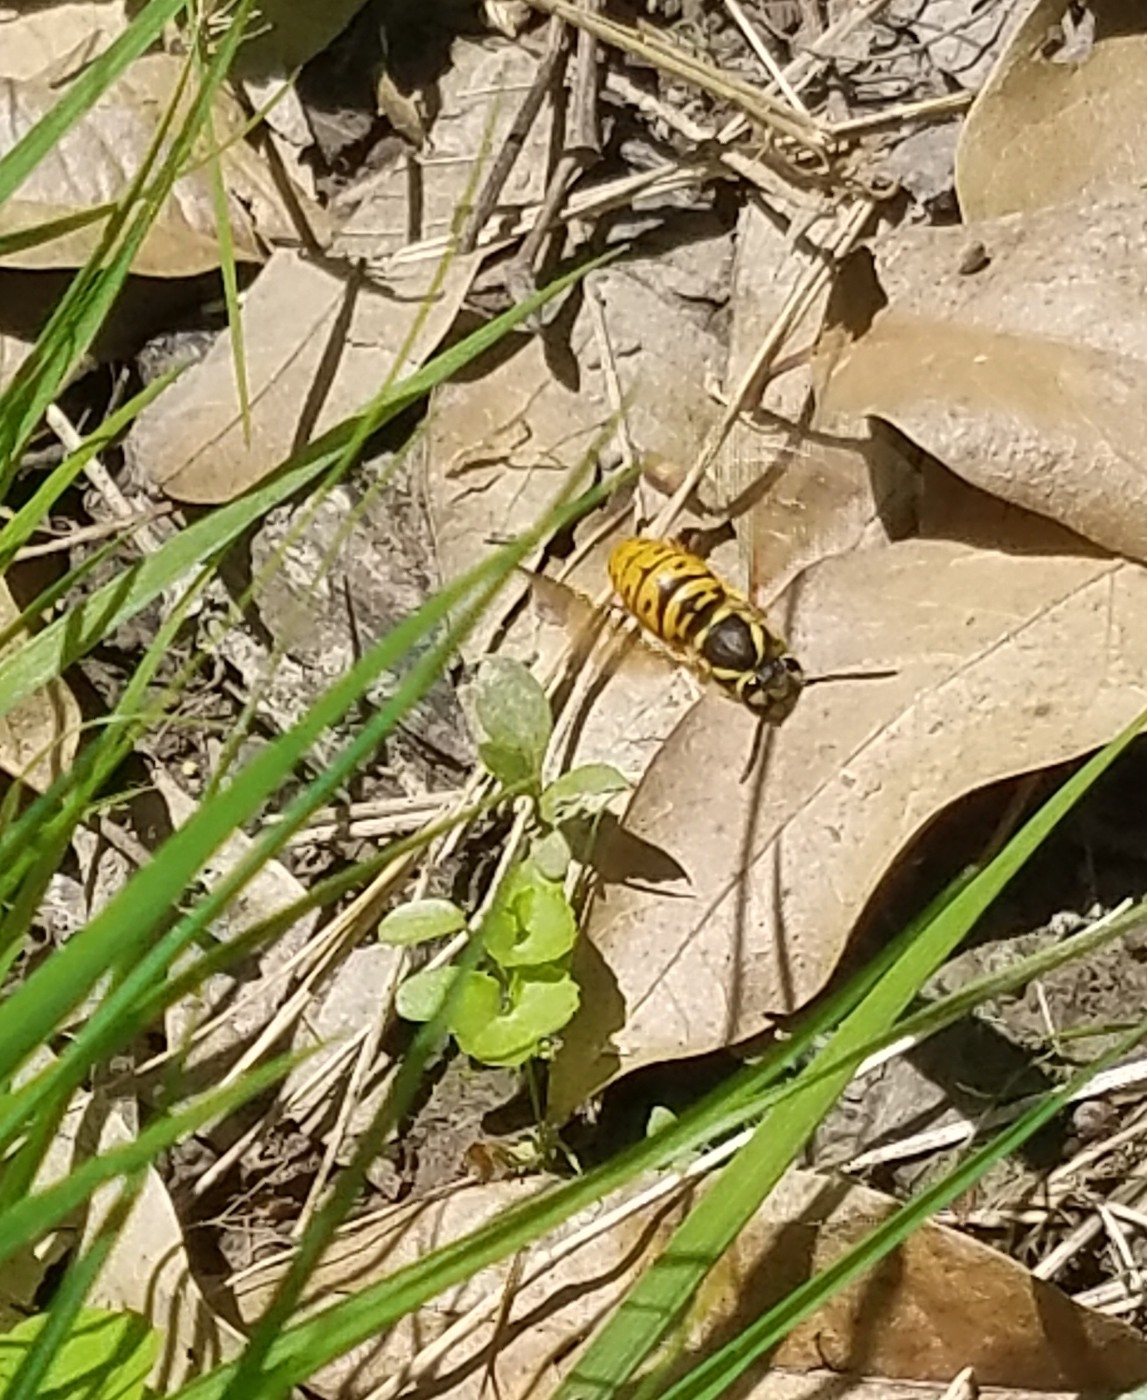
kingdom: Animalia
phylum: Arthropoda
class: Insecta
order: Hymenoptera
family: Vespidae
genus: Vespula
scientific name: Vespula maculifrons
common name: Eastern yellowjacket
